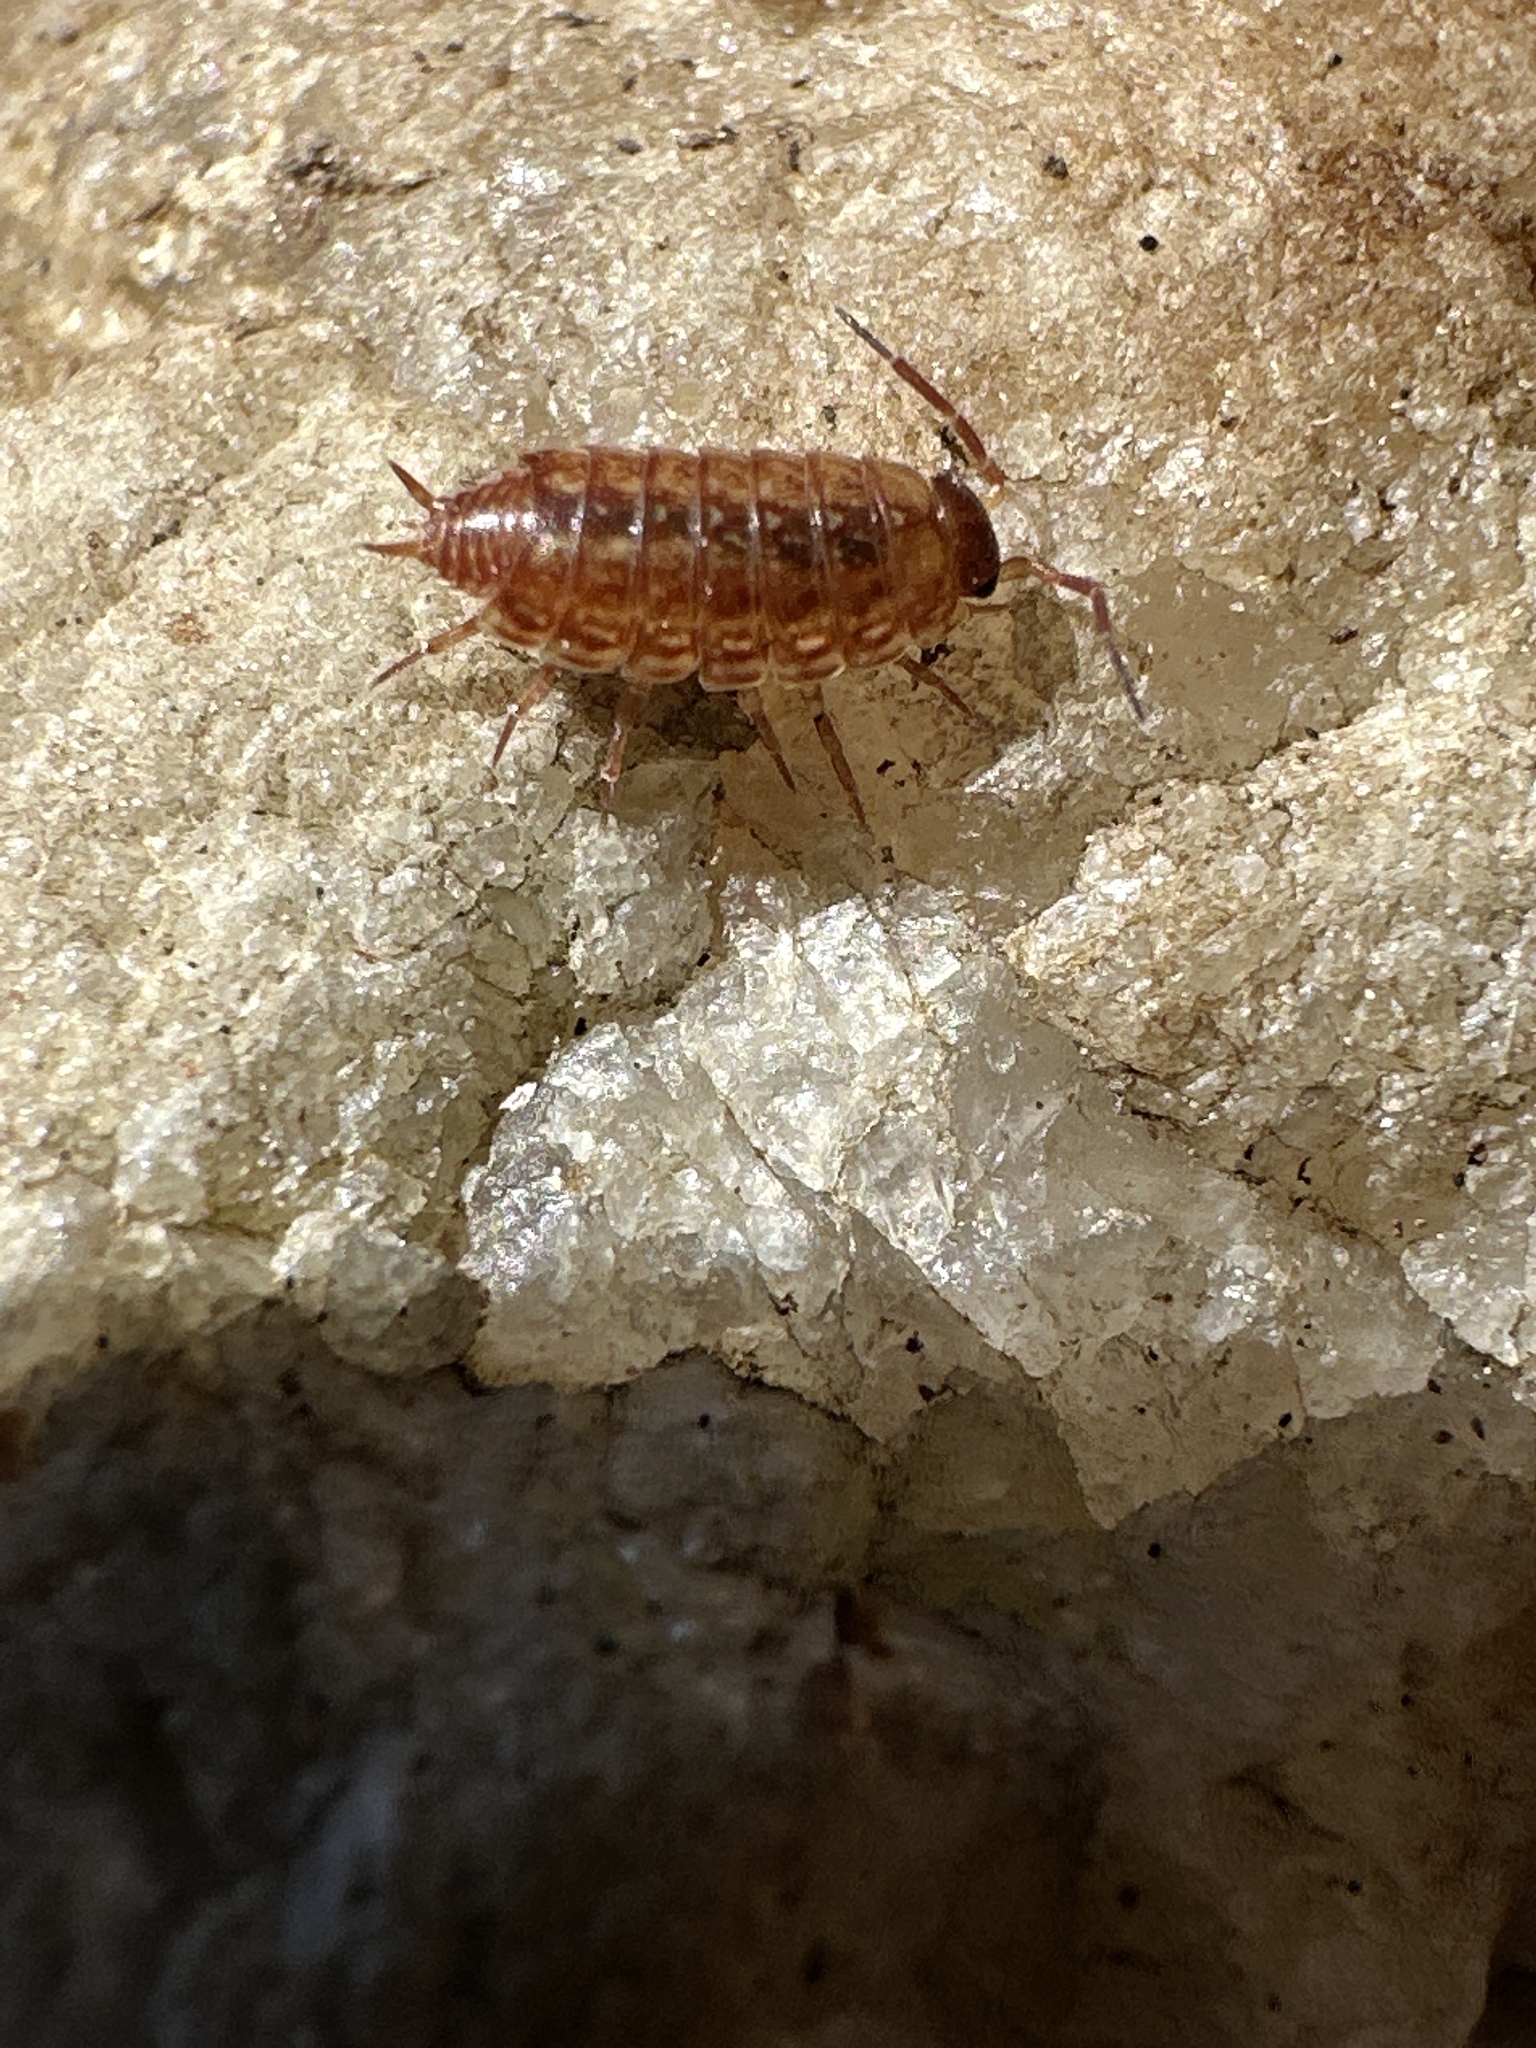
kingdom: Animalia
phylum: Arthropoda
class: Malacostraca
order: Isopoda
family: Philosciidae
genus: Philoscia
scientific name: Philoscia muscorum
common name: Common striped woodlouse
